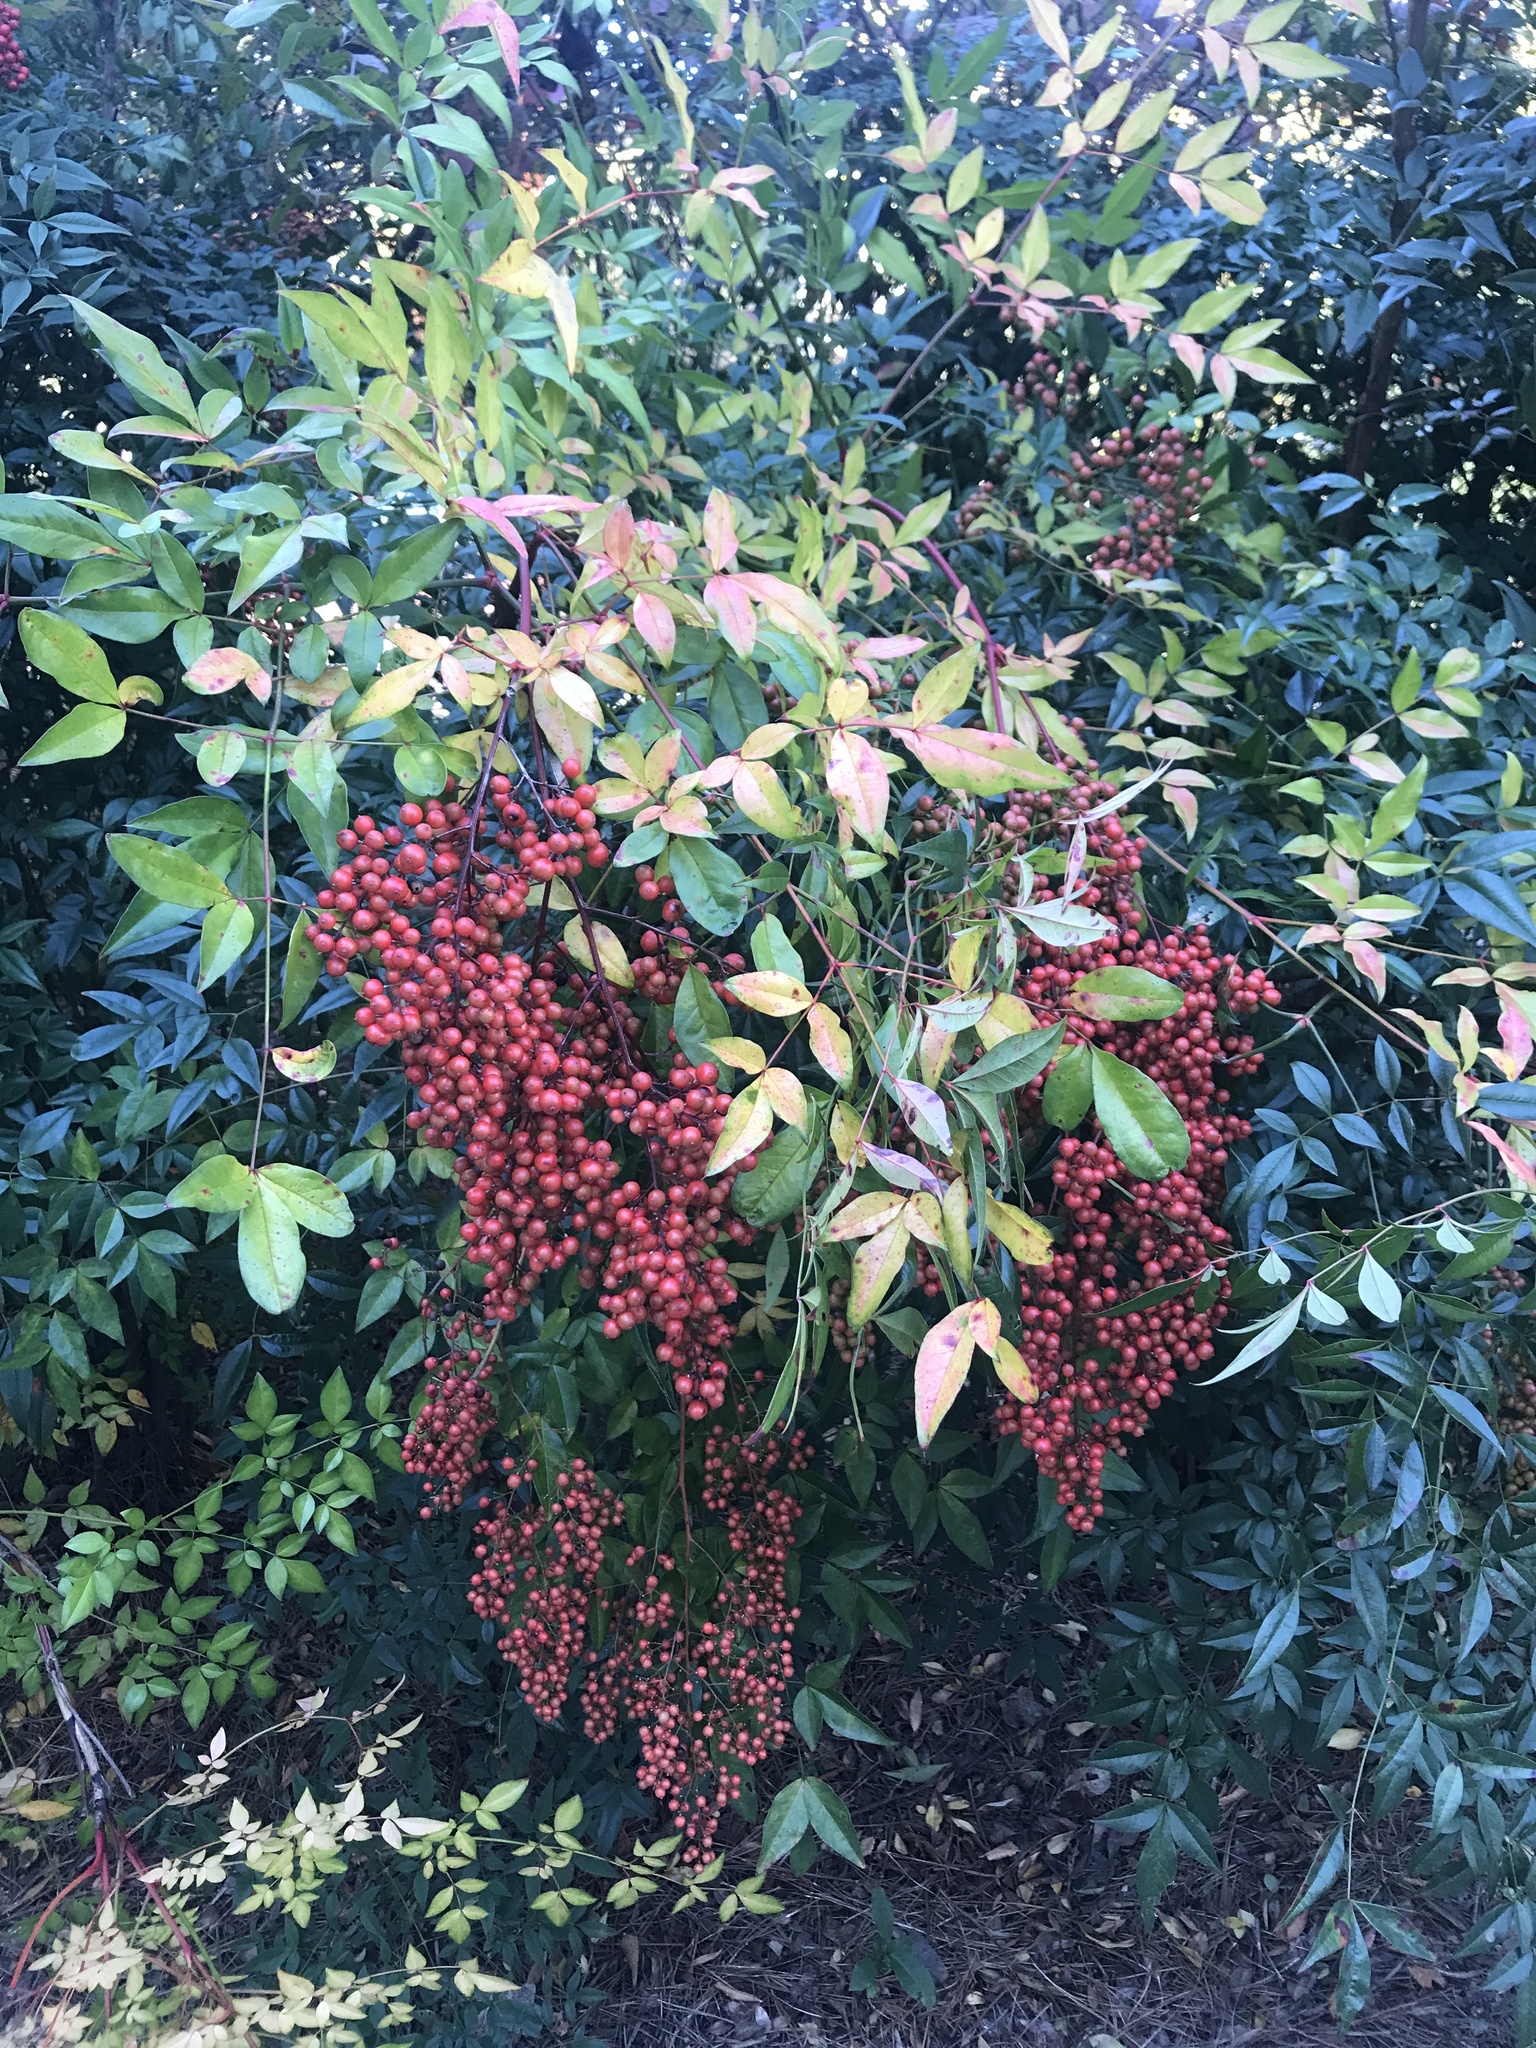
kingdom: Plantae
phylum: Tracheophyta
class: Magnoliopsida
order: Ranunculales
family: Berberidaceae
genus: Nandina
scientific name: Nandina domestica
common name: Sacred bamboo
